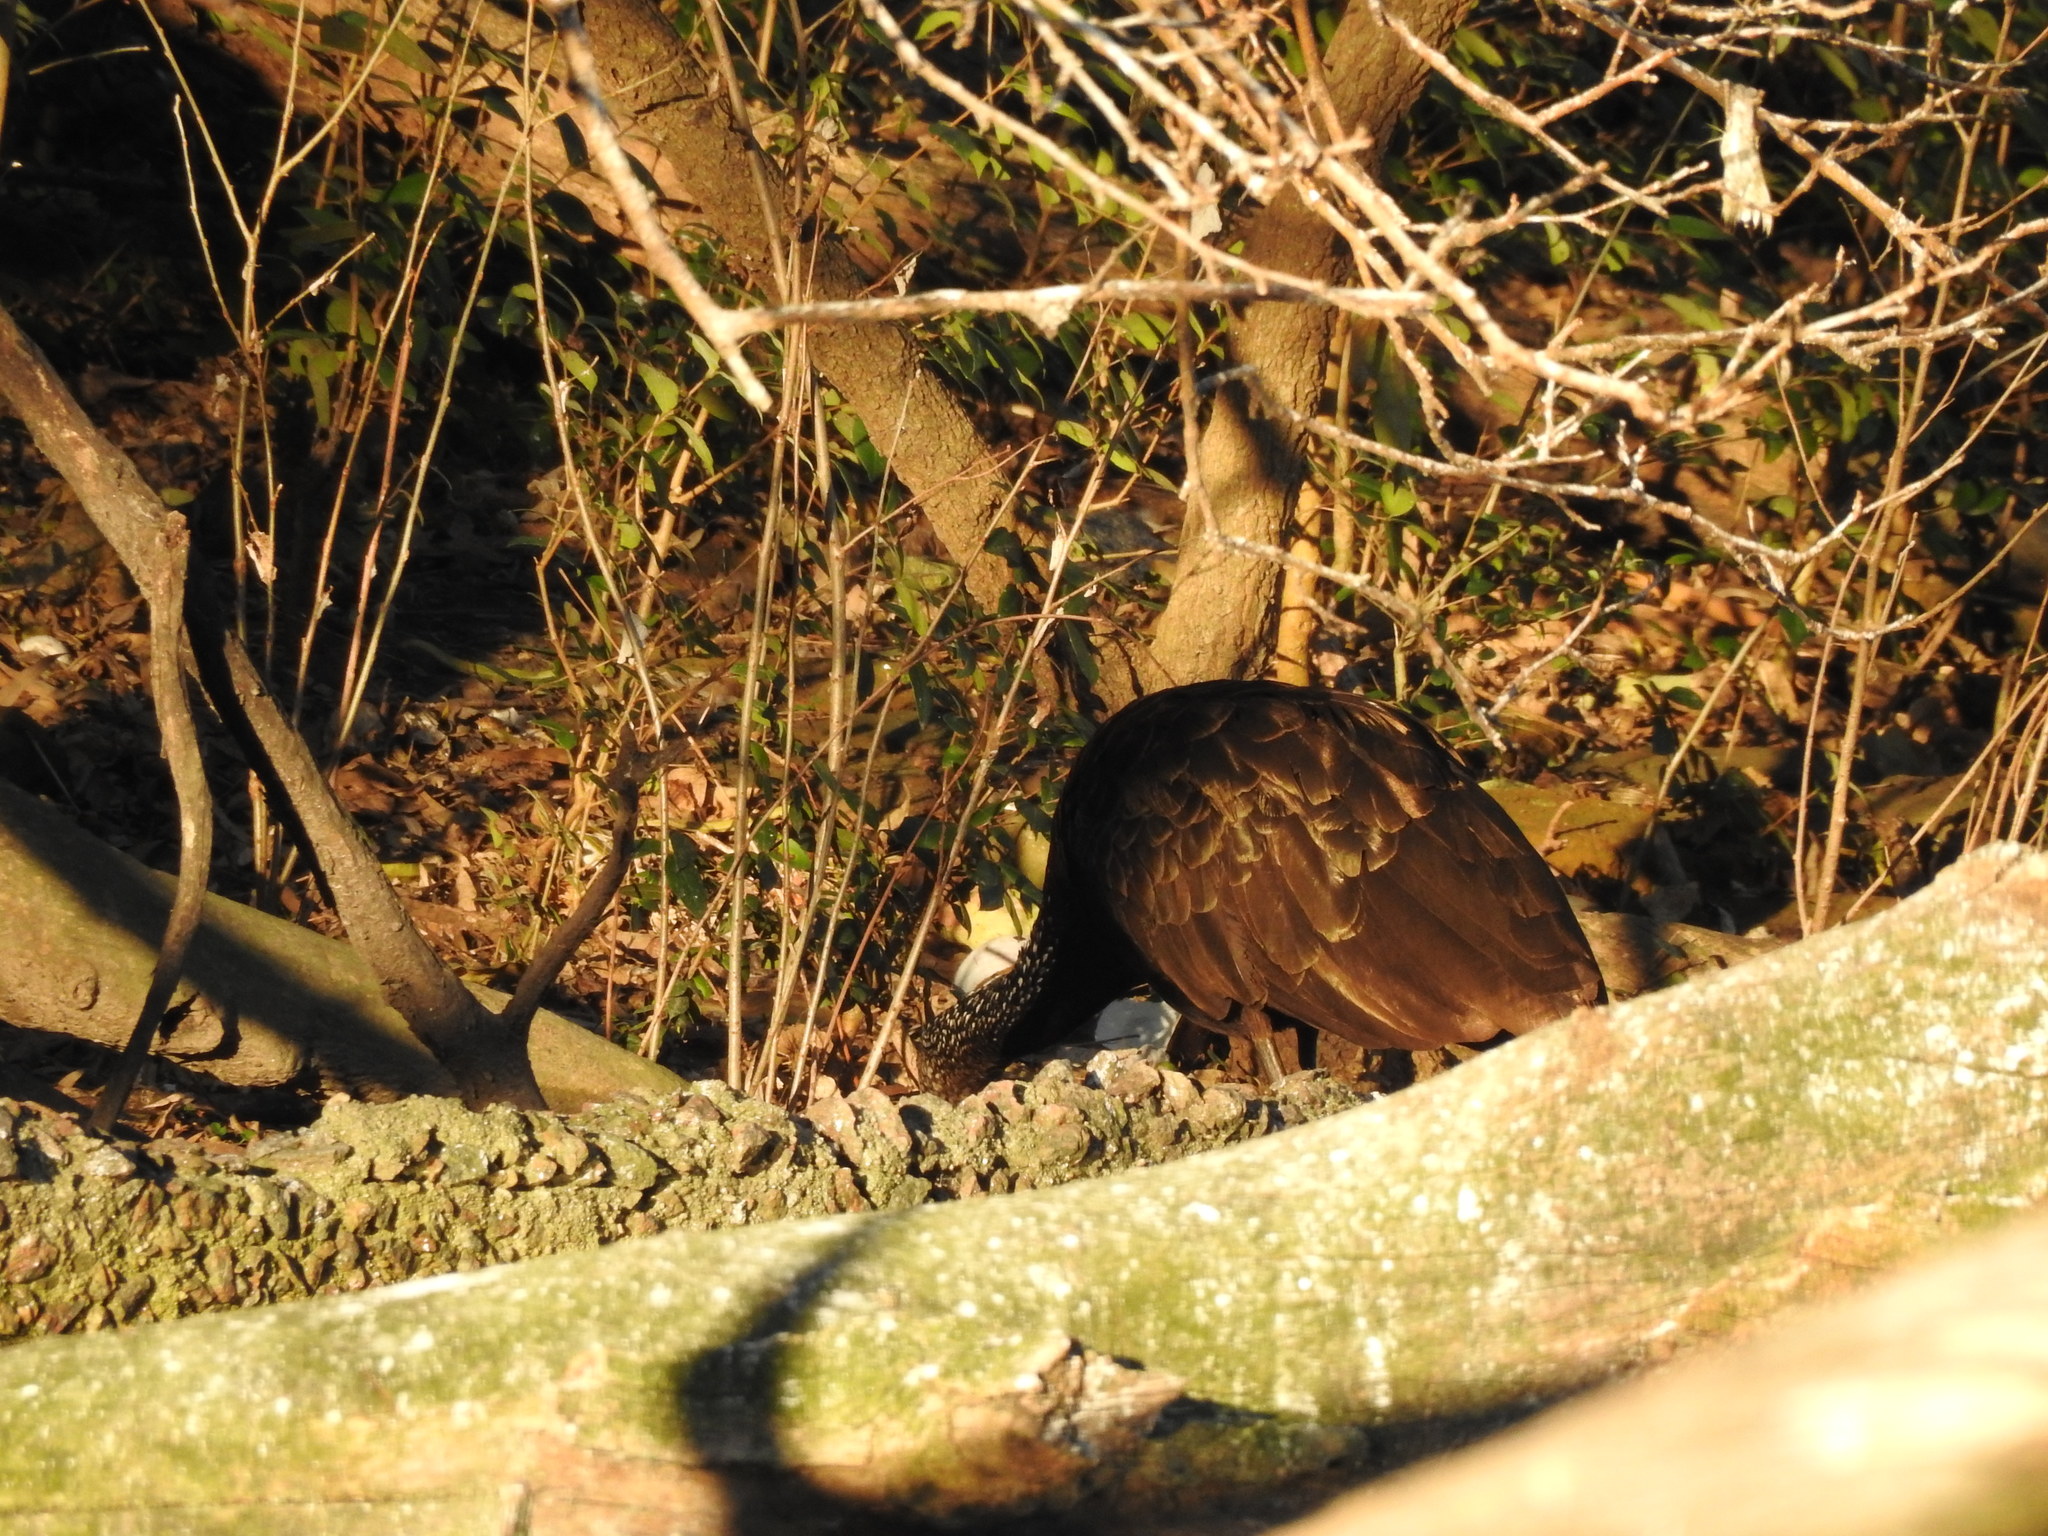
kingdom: Animalia
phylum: Chordata
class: Aves
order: Gruiformes
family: Aramidae
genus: Aramus
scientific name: Aramus guarauna
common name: Limpkin
